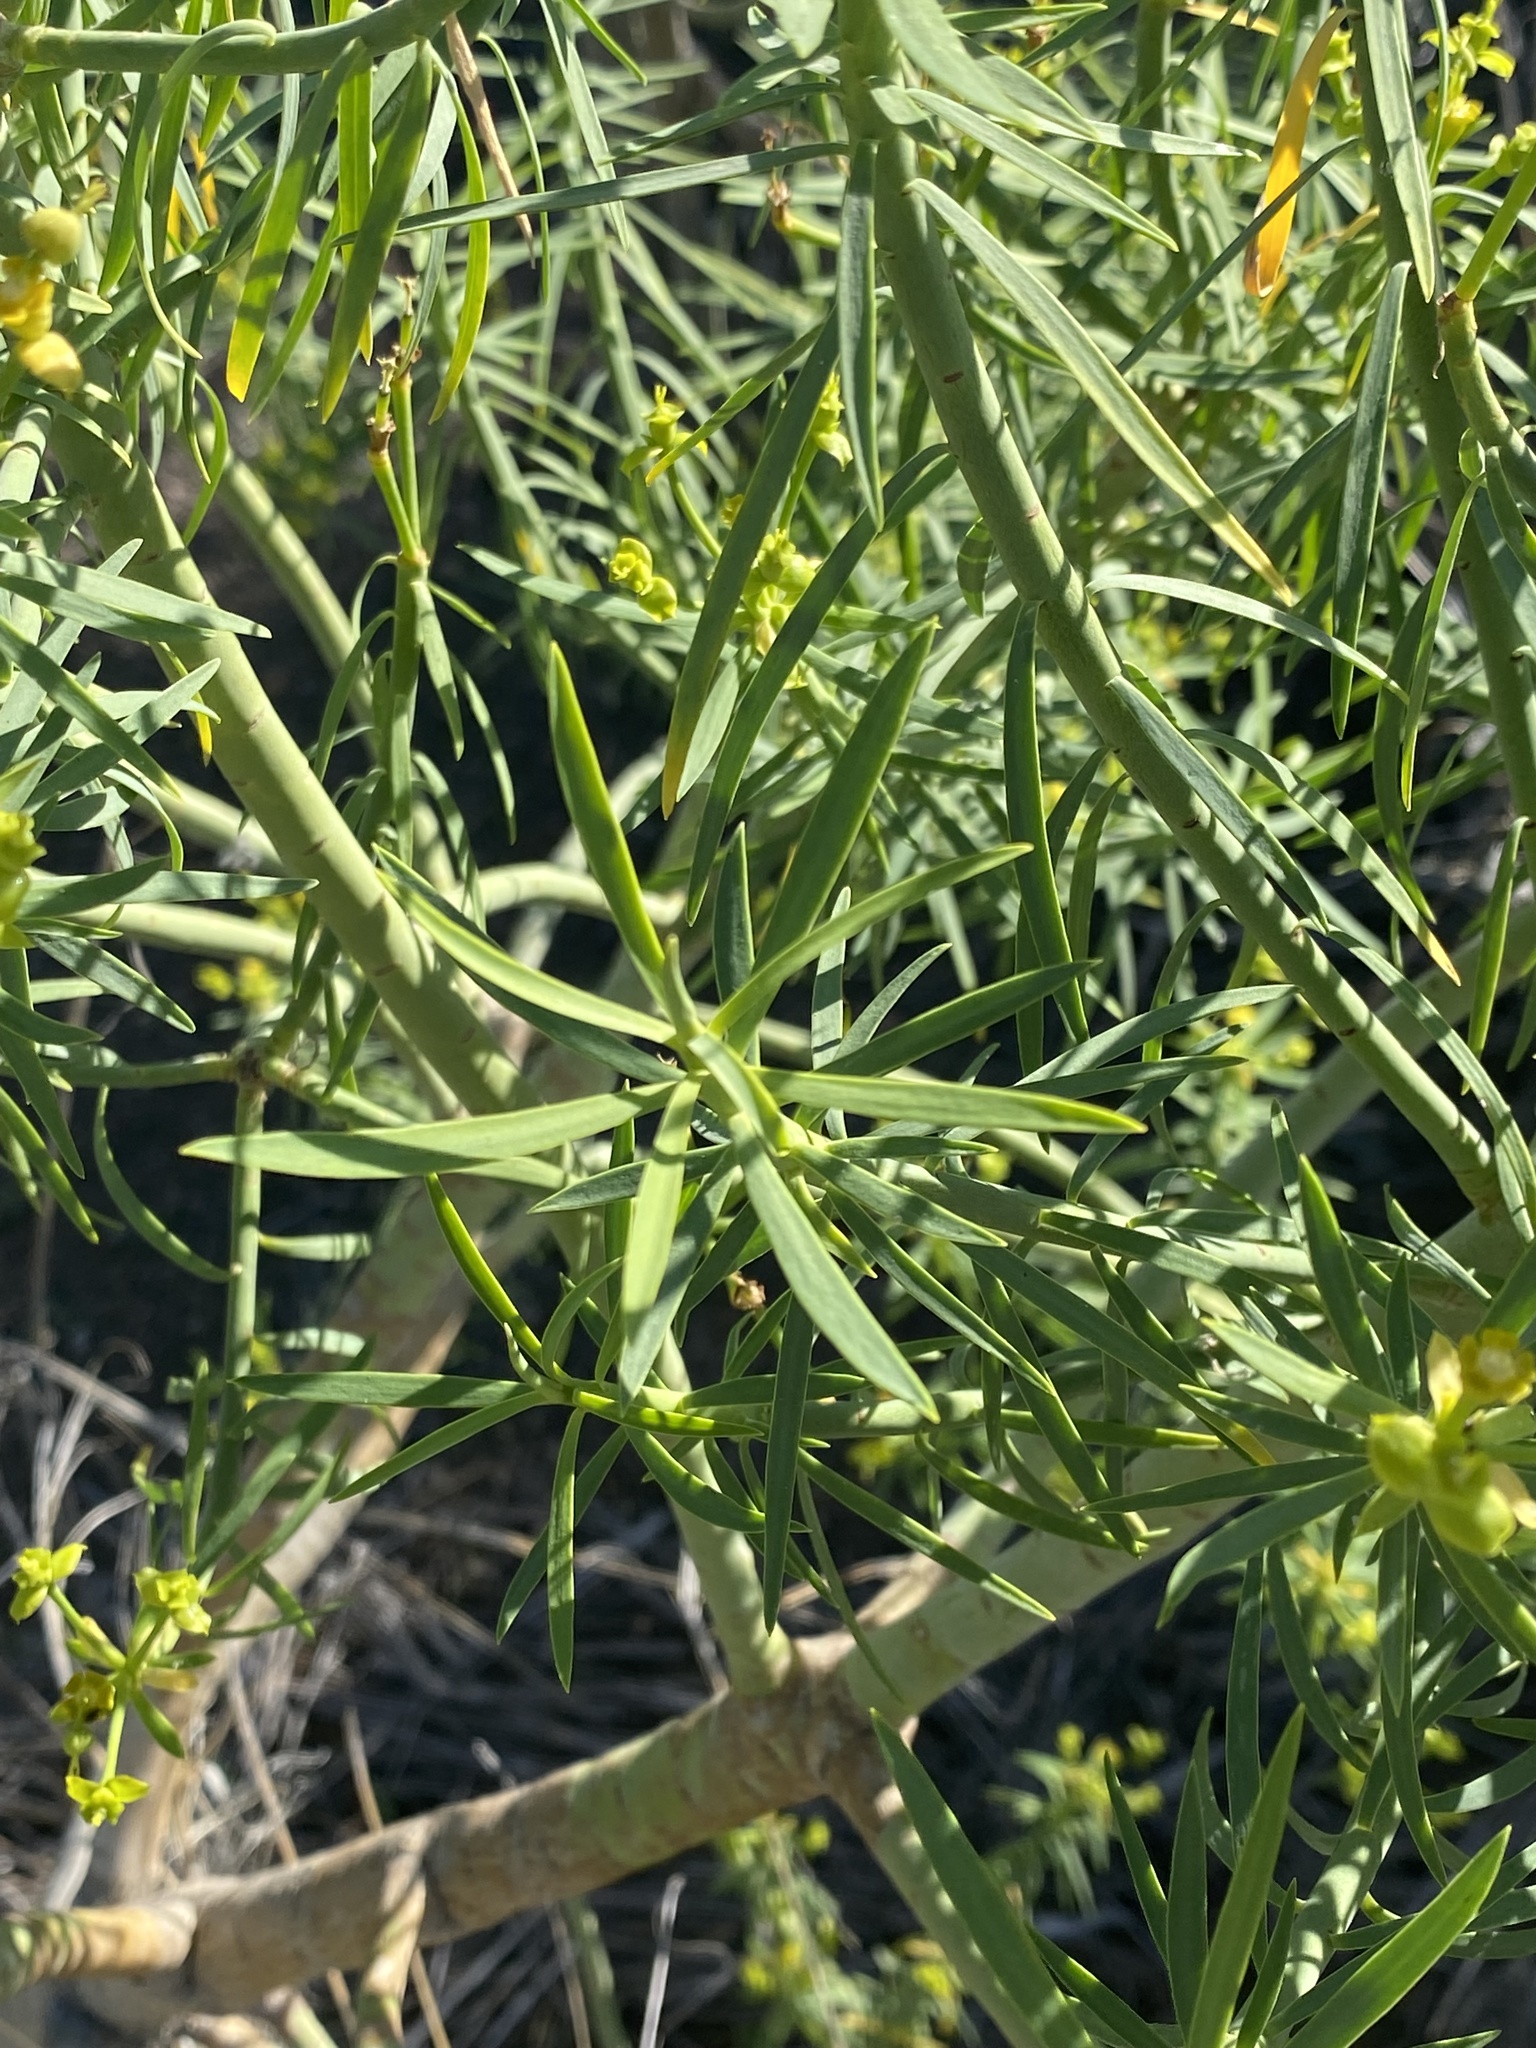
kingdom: Plantae
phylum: Tracheophyta
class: Magnoliopsida
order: Malpighiales
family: Euphorbiaceae
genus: Euphorbia
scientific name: Euphorbia lamarckii
